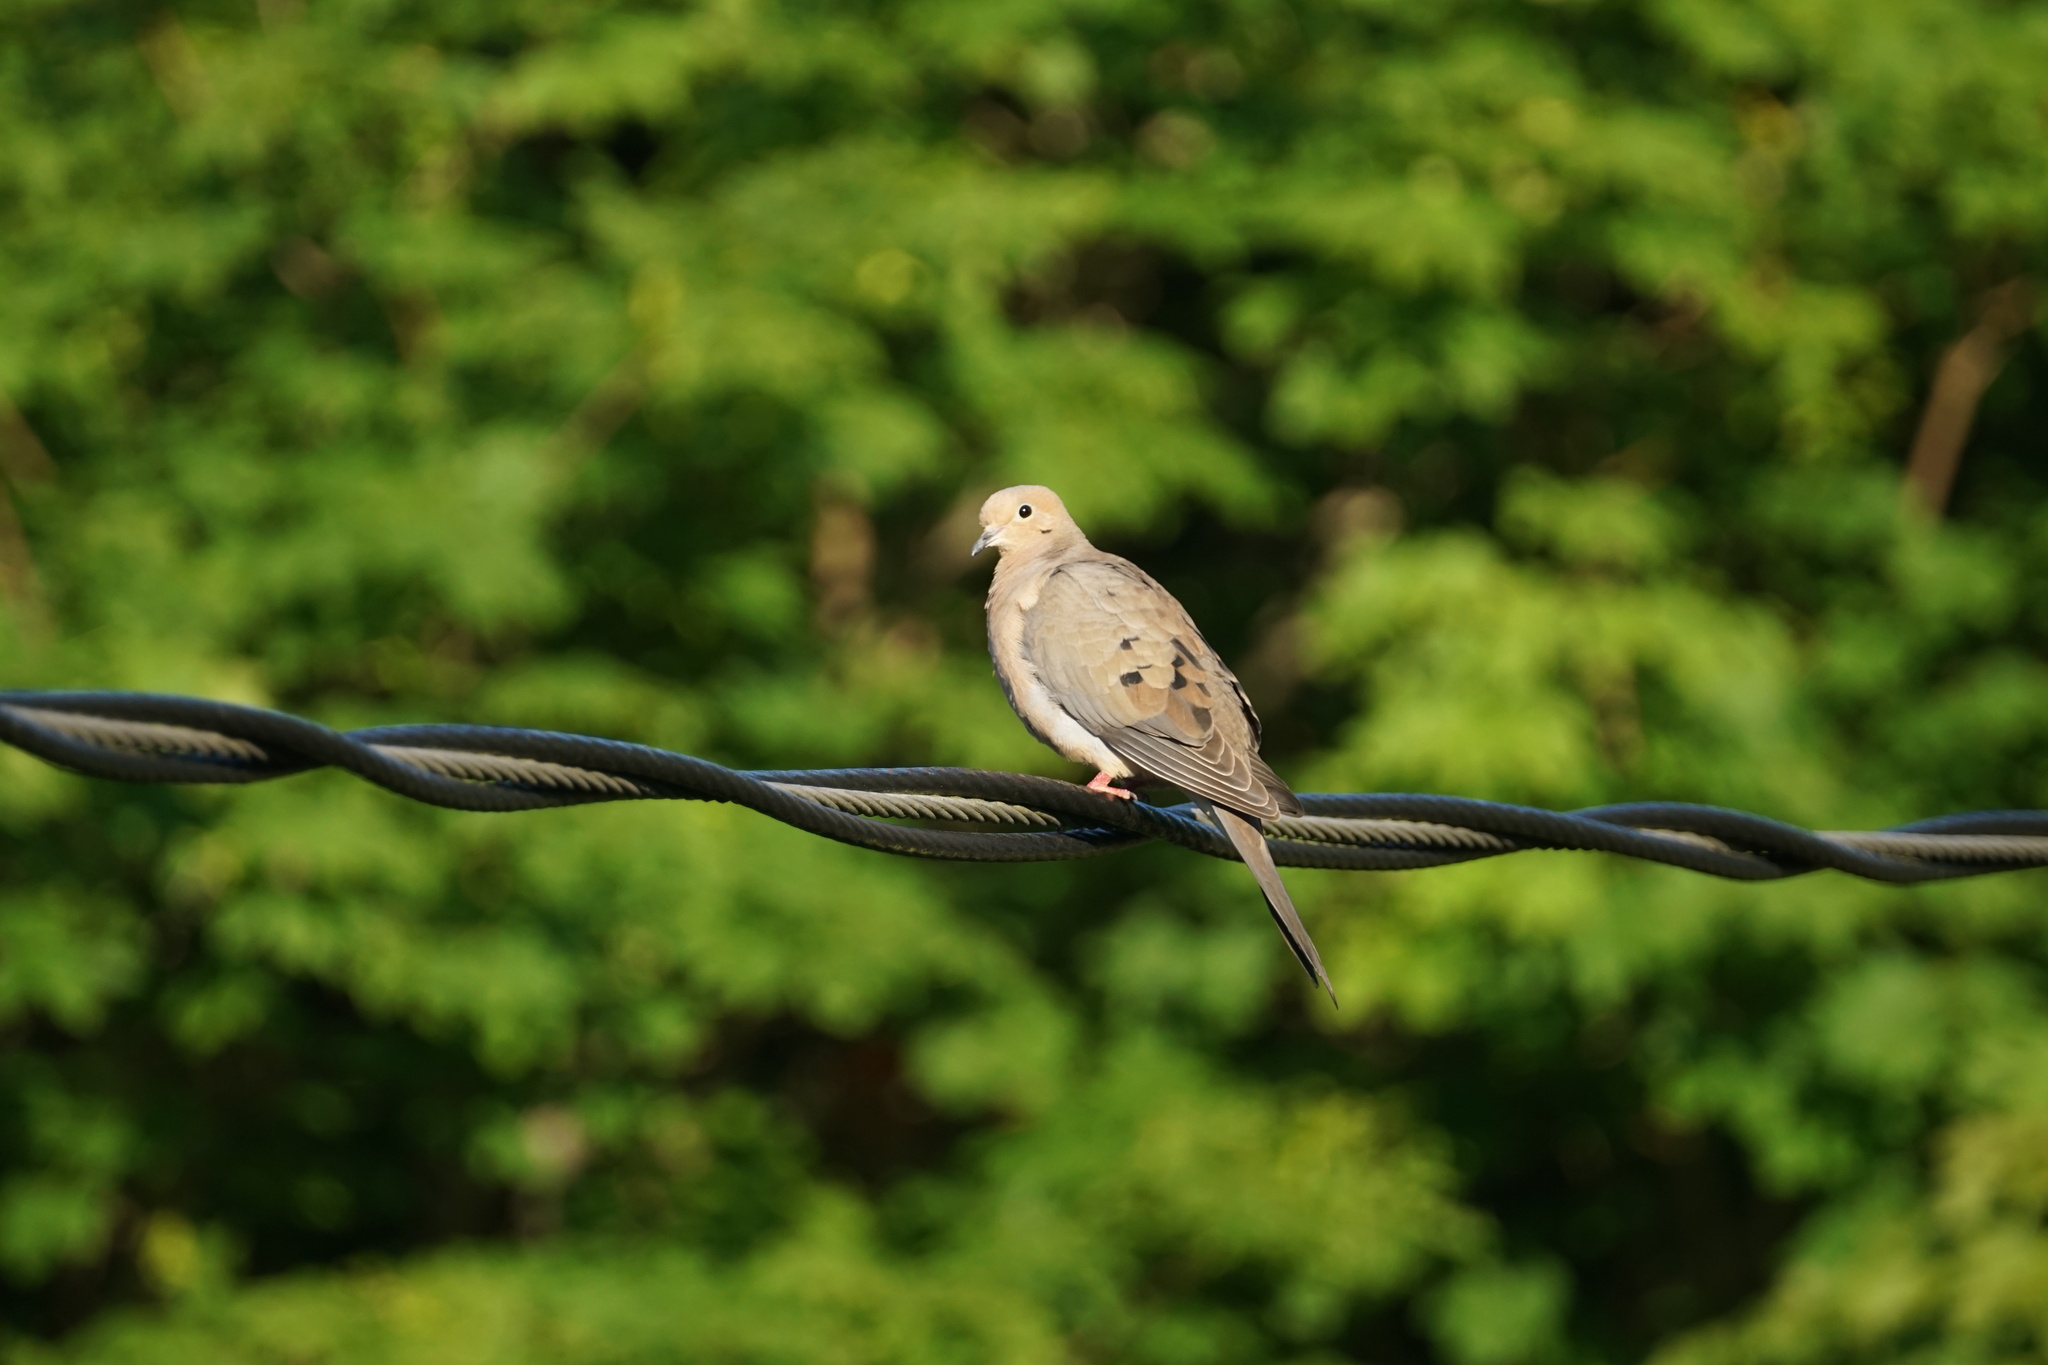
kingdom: Animalia
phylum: Chordata
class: Aves
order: Columbiformes
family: Columbidae
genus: Zenaida
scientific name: Zenaida macroura
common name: Mourning dove
